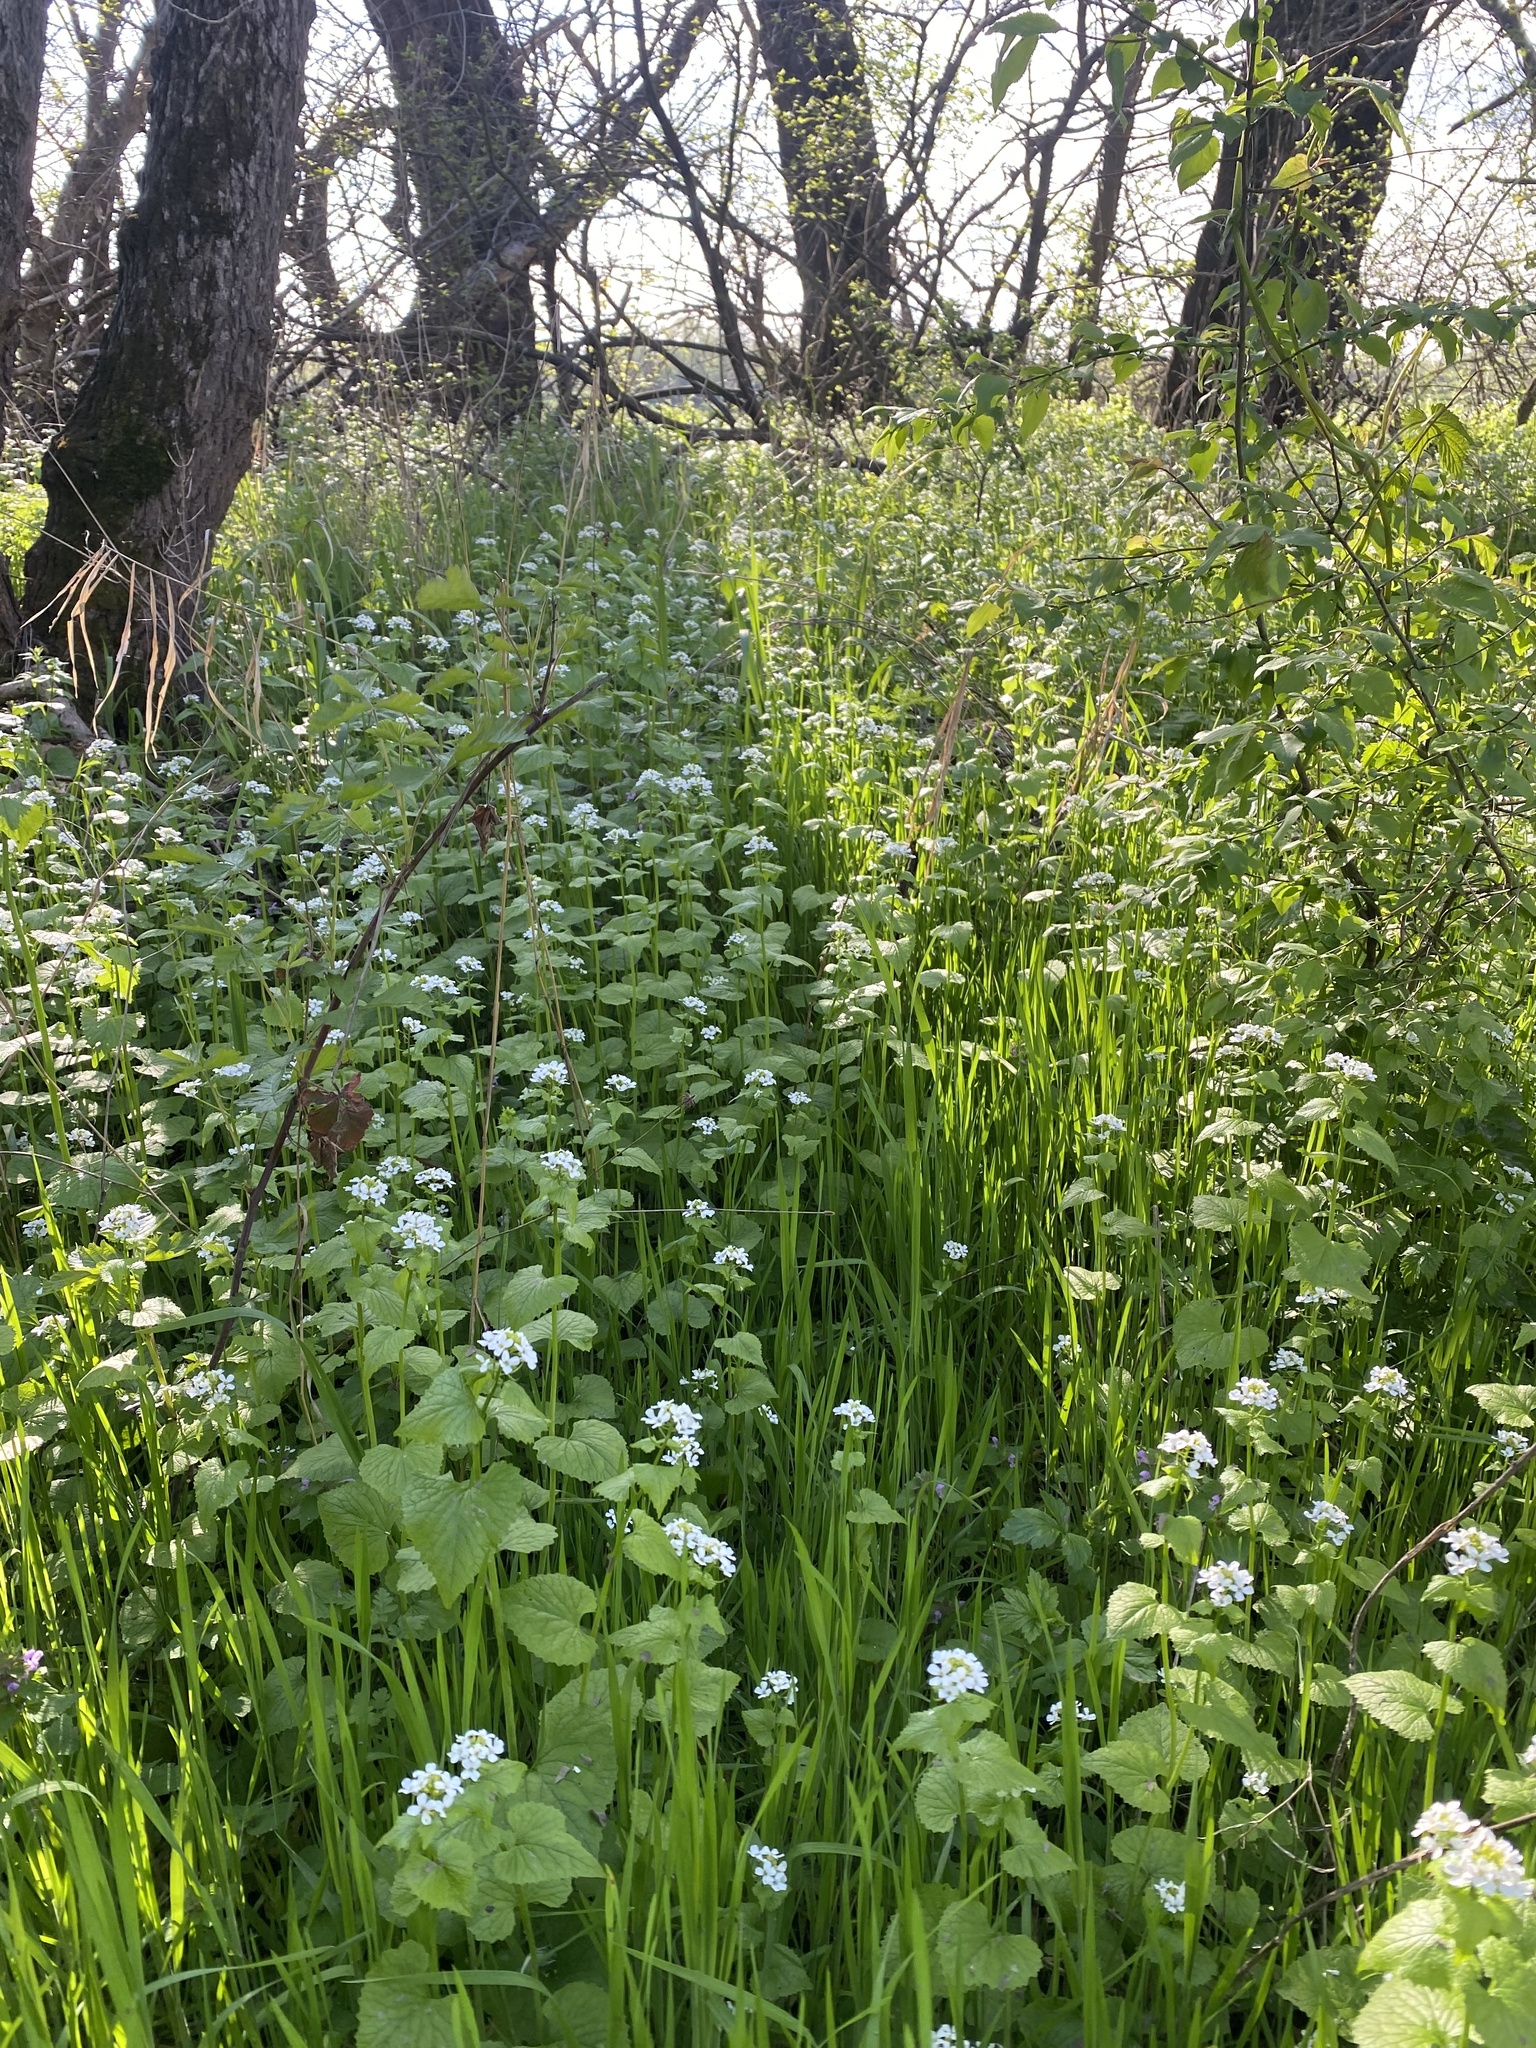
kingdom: Plantae
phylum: Tracheophyta
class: Magnoliopsida
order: Brassicales
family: Brassicaceae
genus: Alliaria
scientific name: Alliaria petiolata
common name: Garlic mustard
